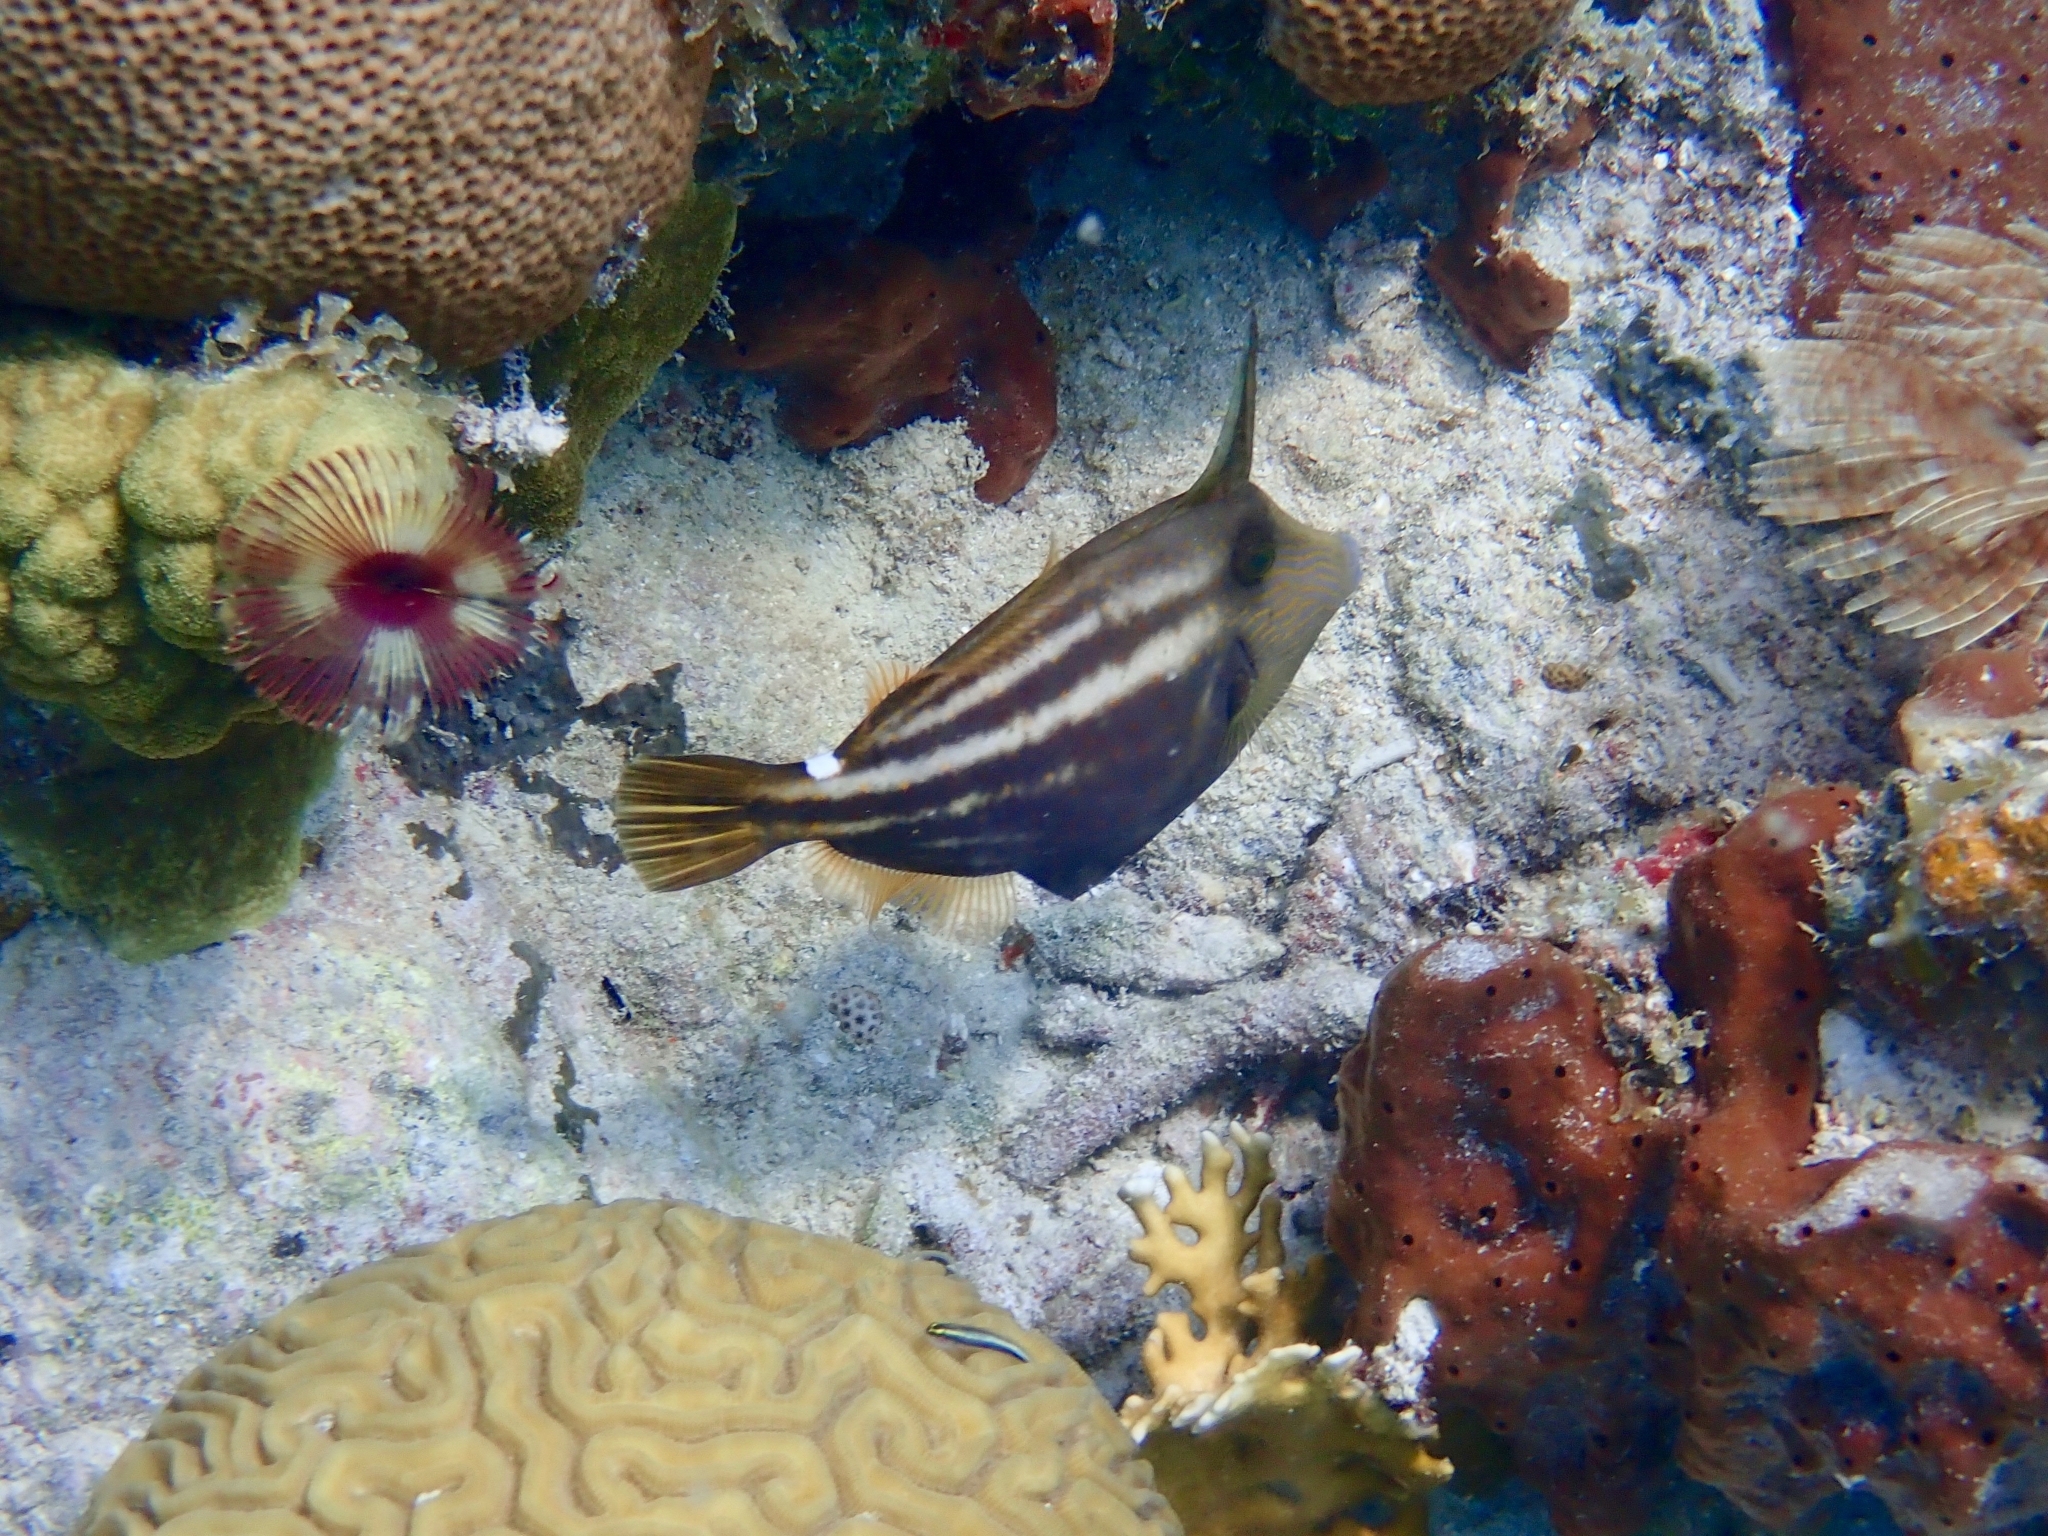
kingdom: Animalia
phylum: Chordata
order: Tetraodontiformes
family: Monacanthidae
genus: Cantherhines
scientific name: Cantherhines pullus
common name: Orangespotted filefish
